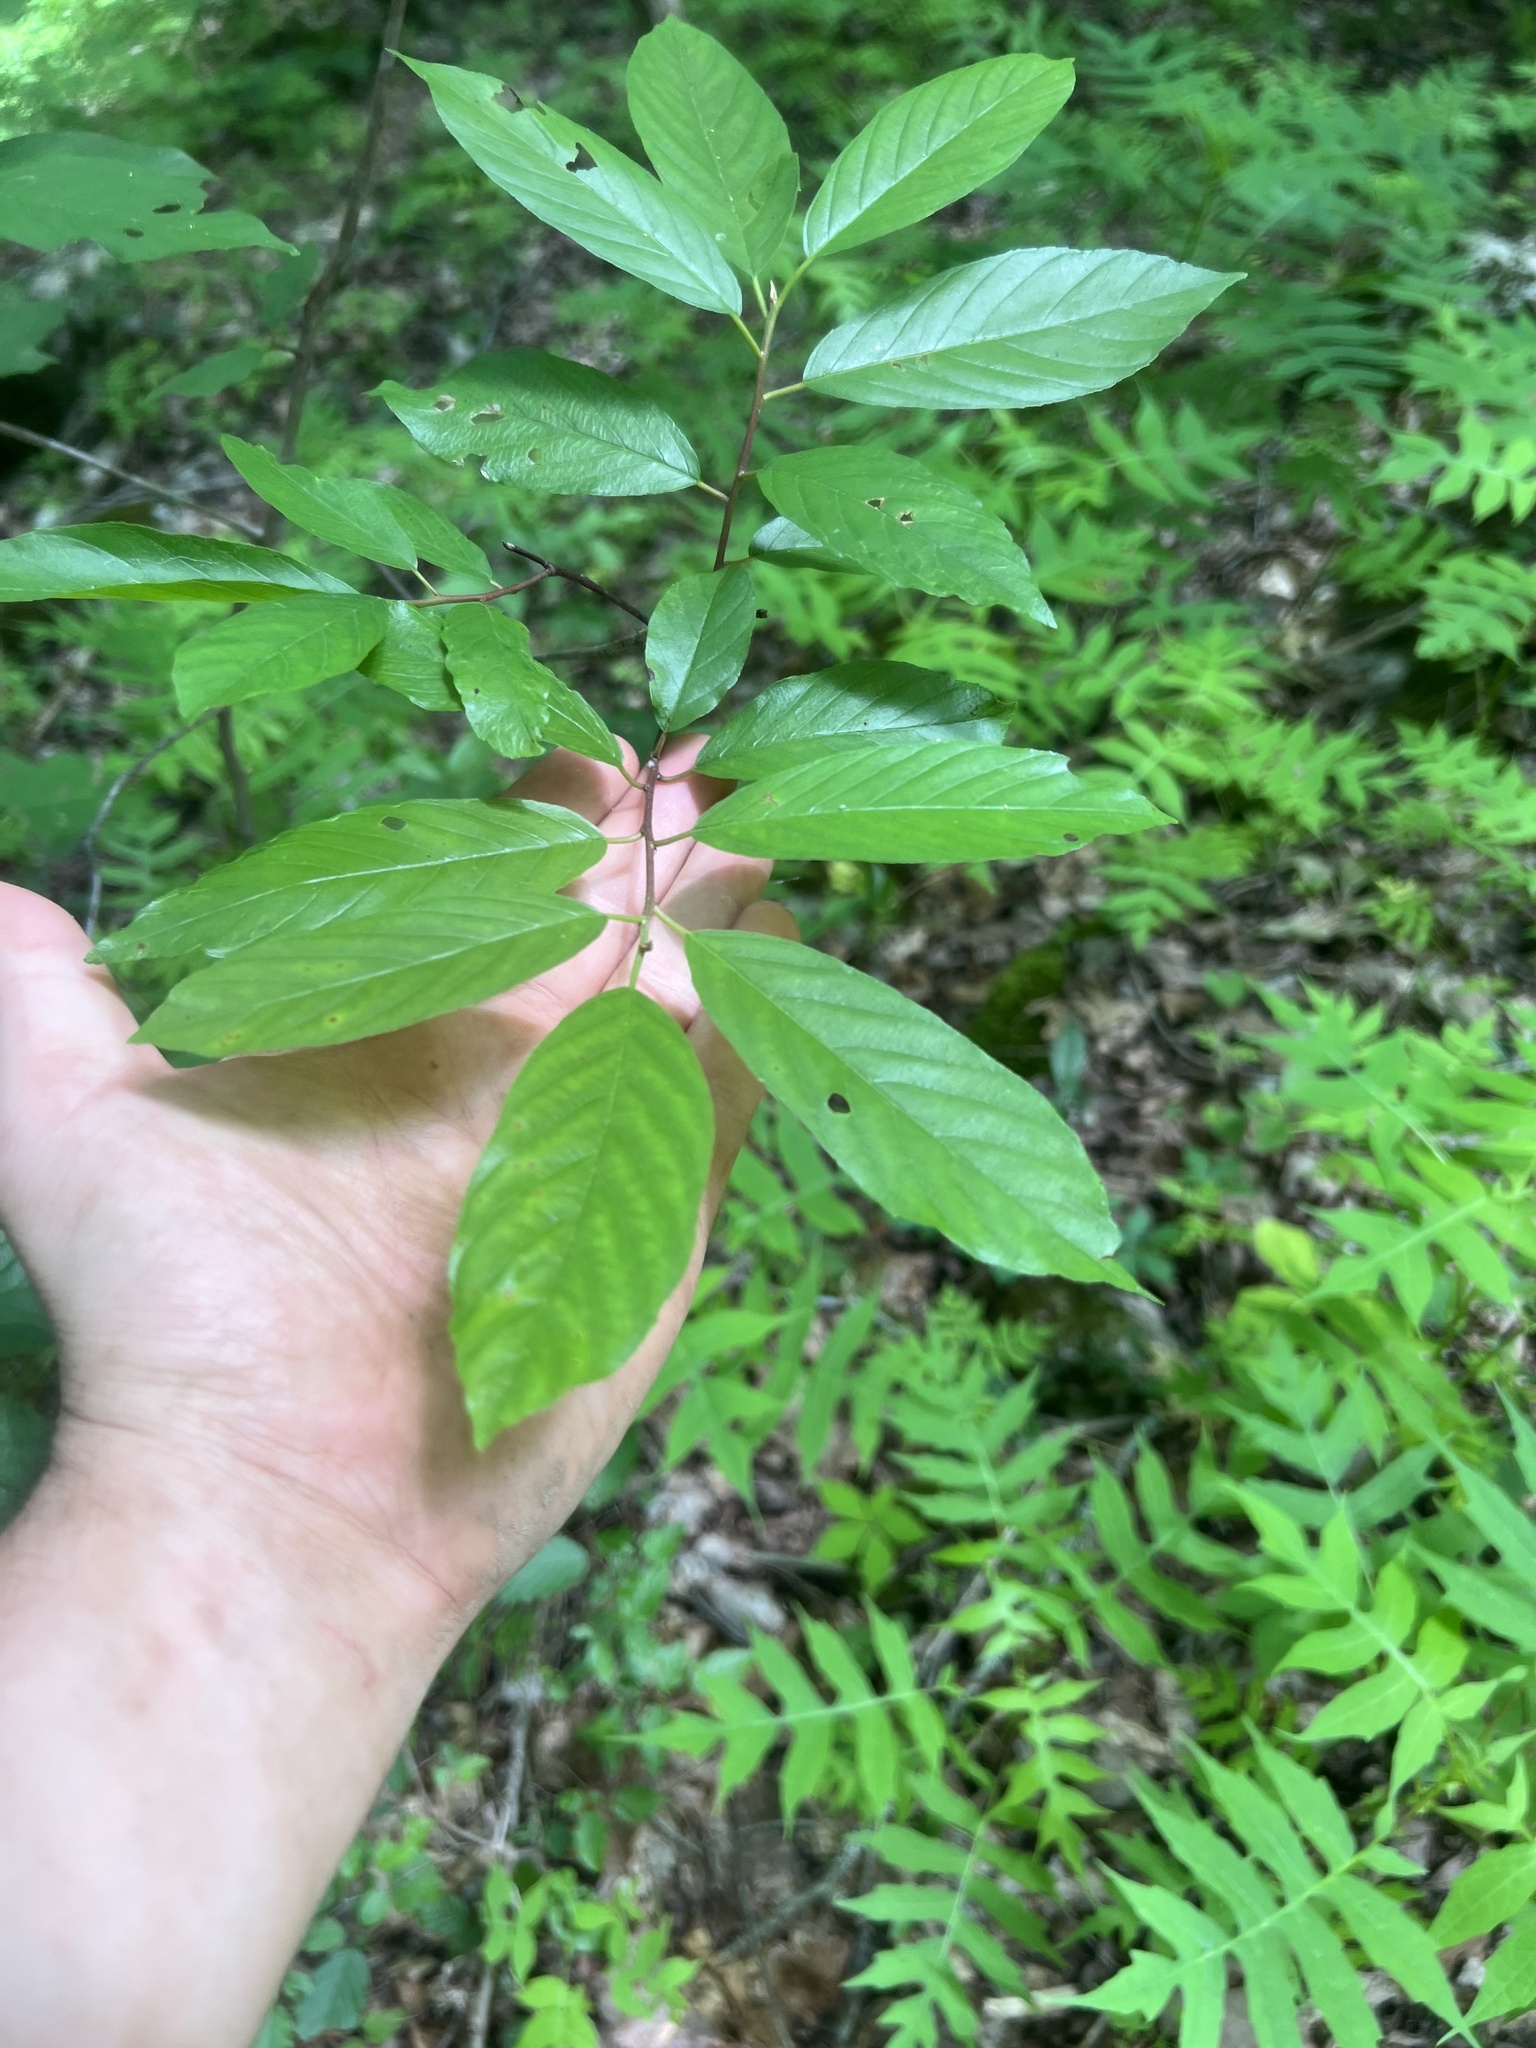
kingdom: Plantae
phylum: Tracheophyta
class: Magnoliopsida
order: Rosales
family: Rhamnaceae
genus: Frangula
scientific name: Frangula caroliniana
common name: Carolina buckthorn
